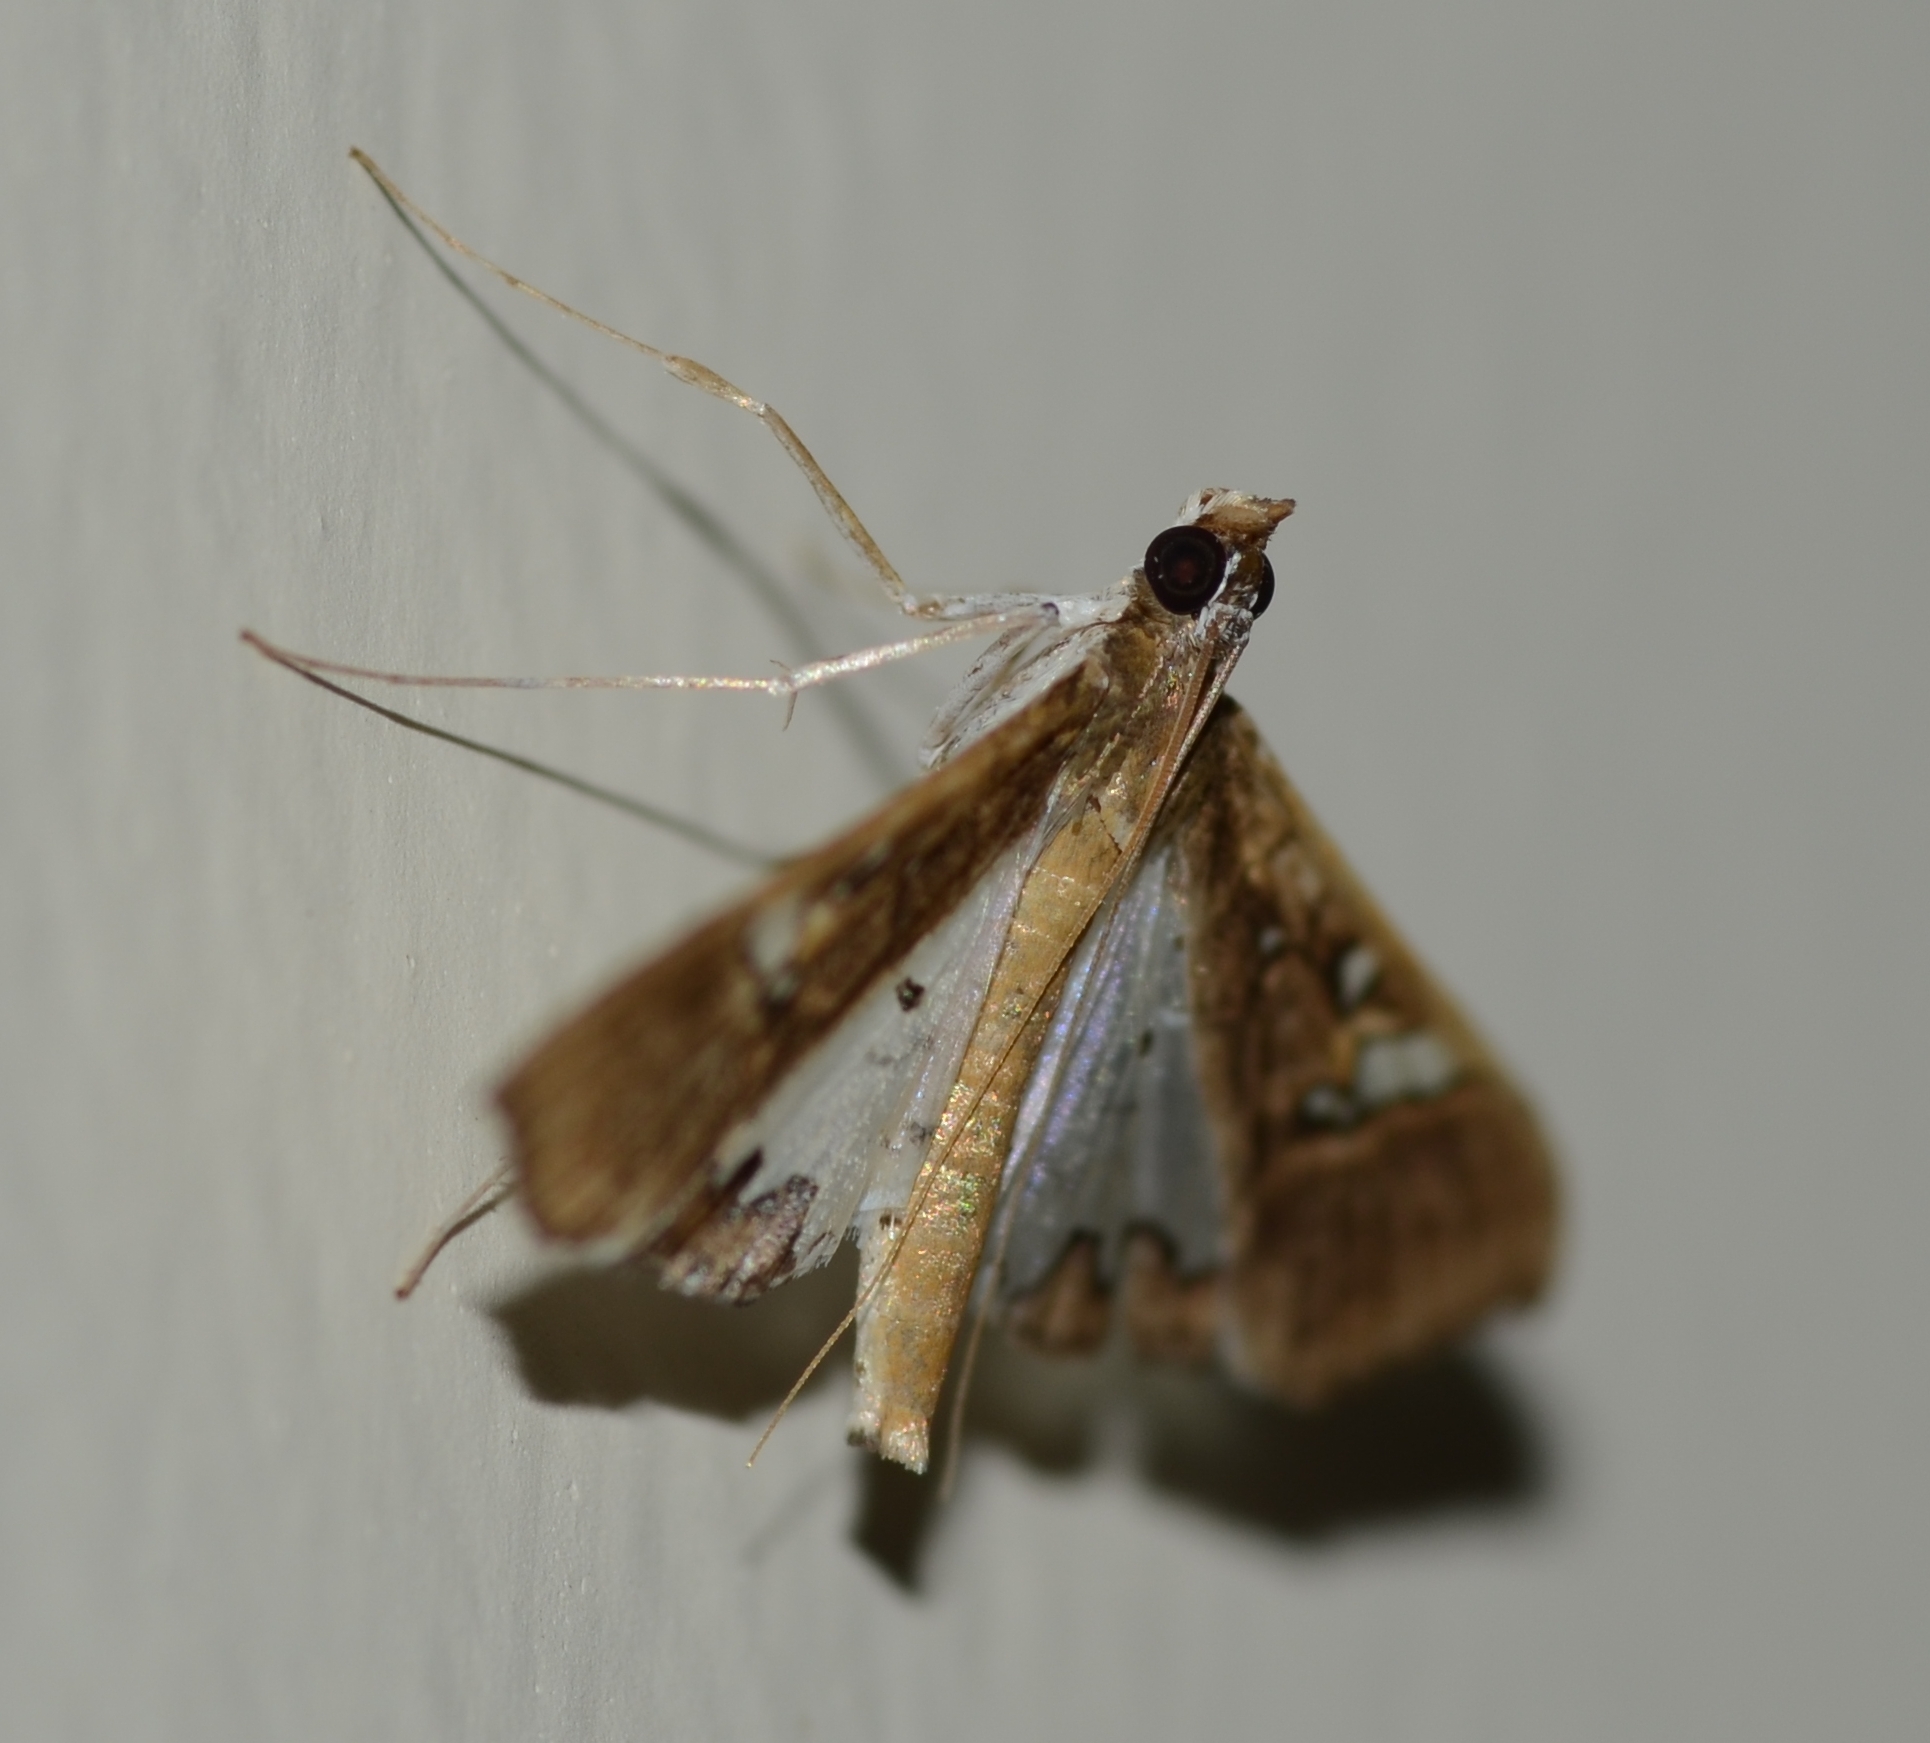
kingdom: Animalia
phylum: Arthropoda
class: Insecta
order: Lepidoptera
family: Crambidae
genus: Maruca
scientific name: Maruca vitrata
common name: Maruca pod borer
